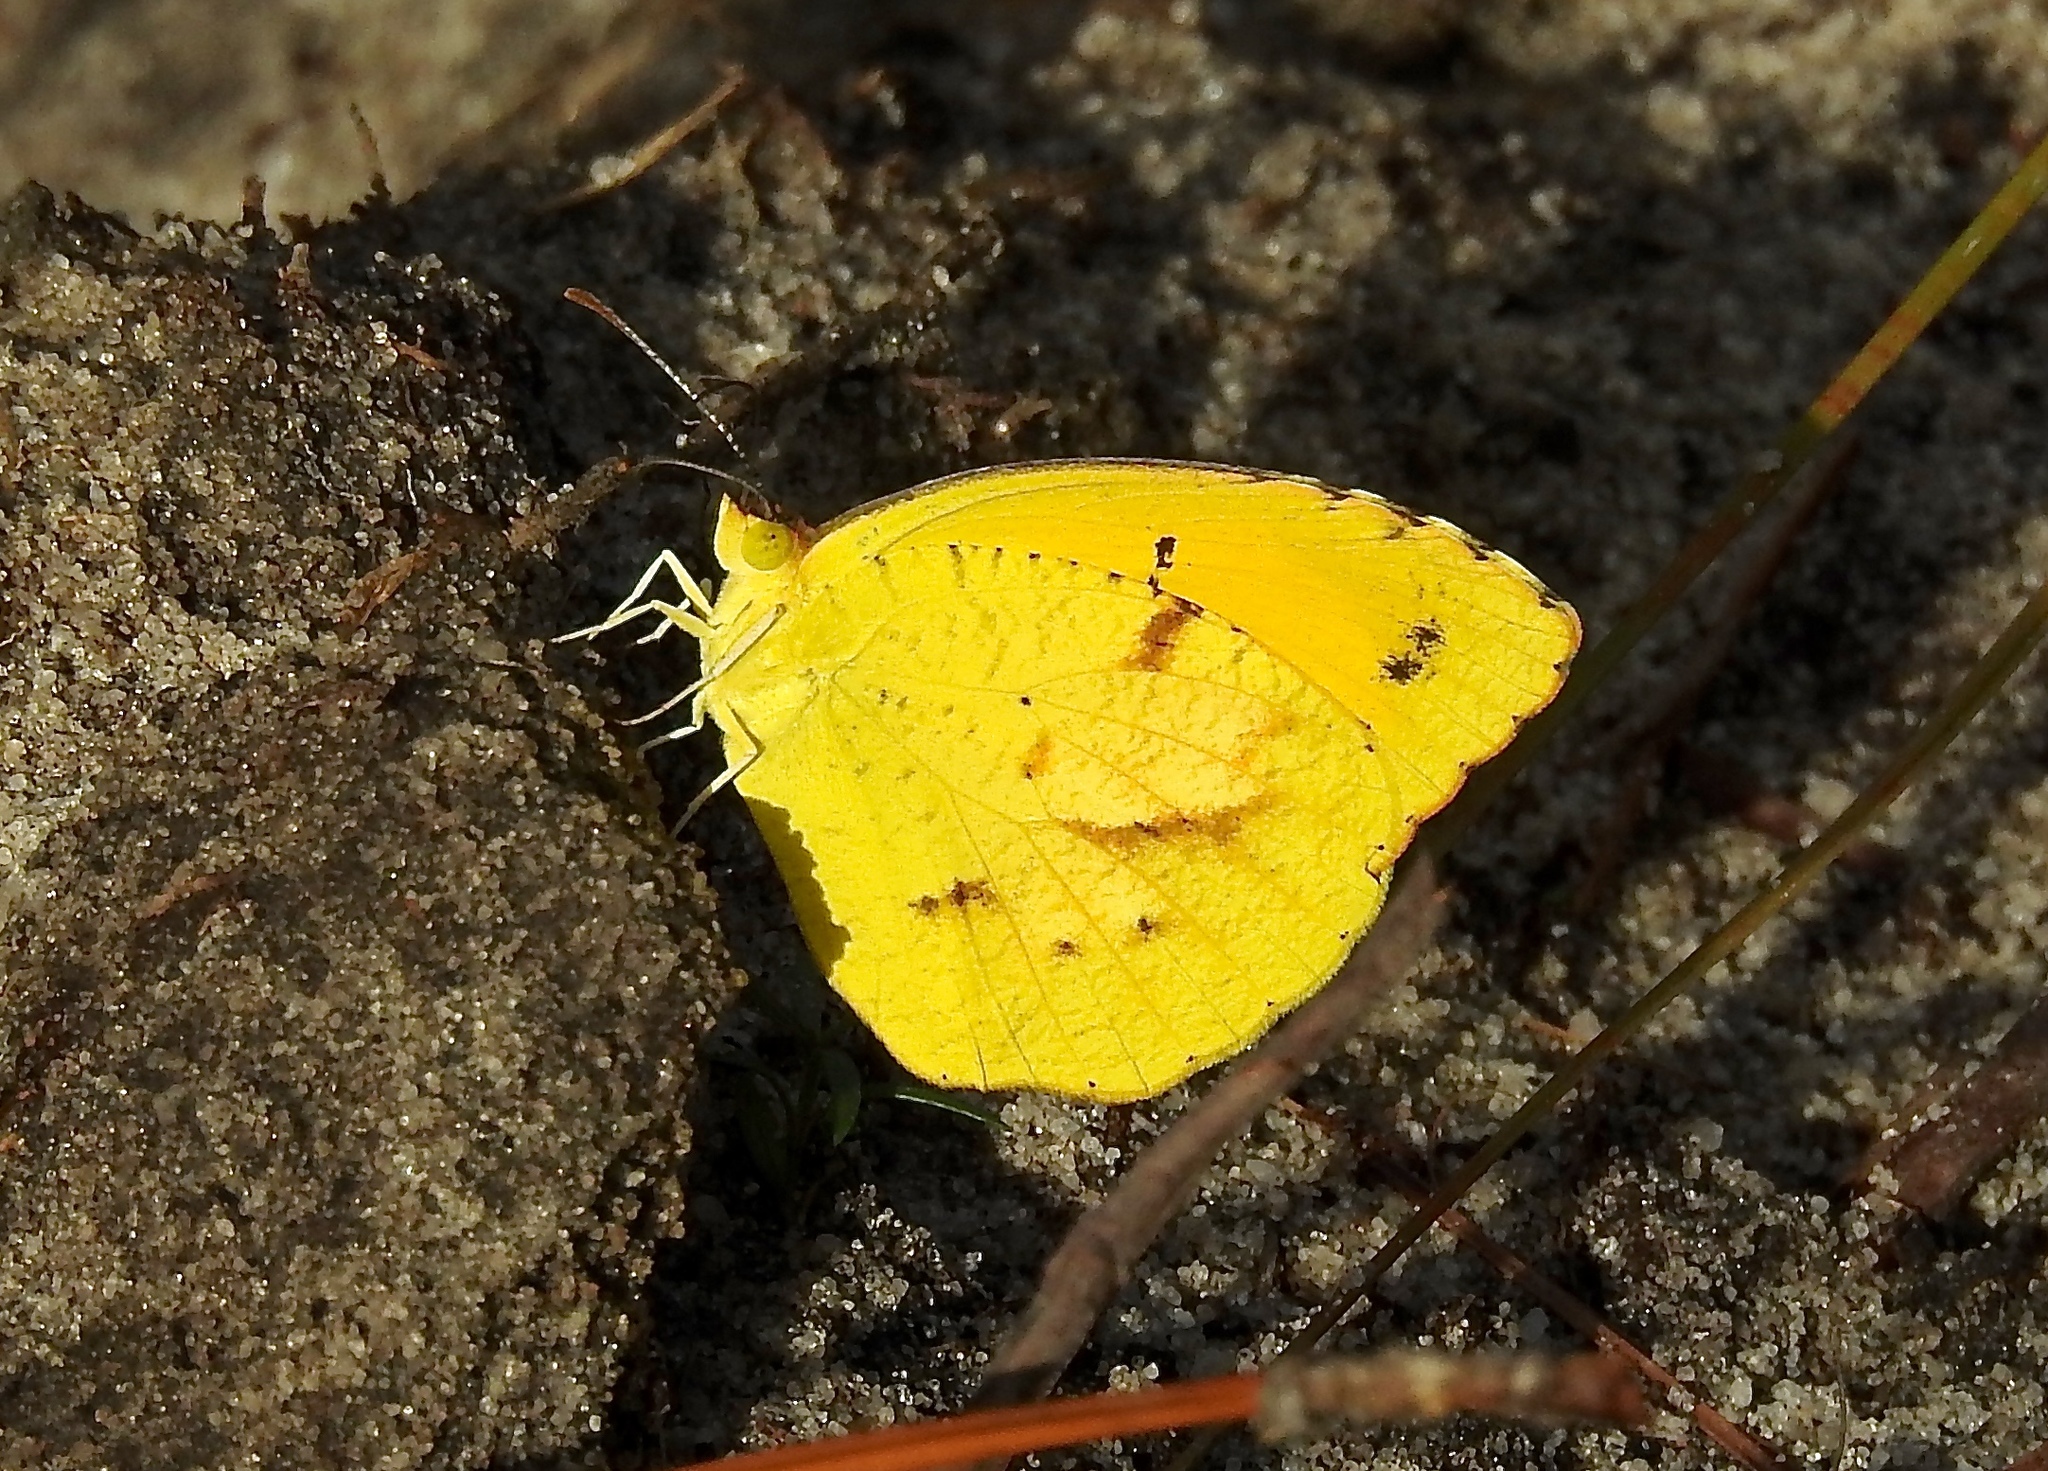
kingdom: Animalia
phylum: Arthropoda
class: Insecta
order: Lepidoptera
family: Pieridae
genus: Abaeis
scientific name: Abaeis nicippe
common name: Sleepy orange
